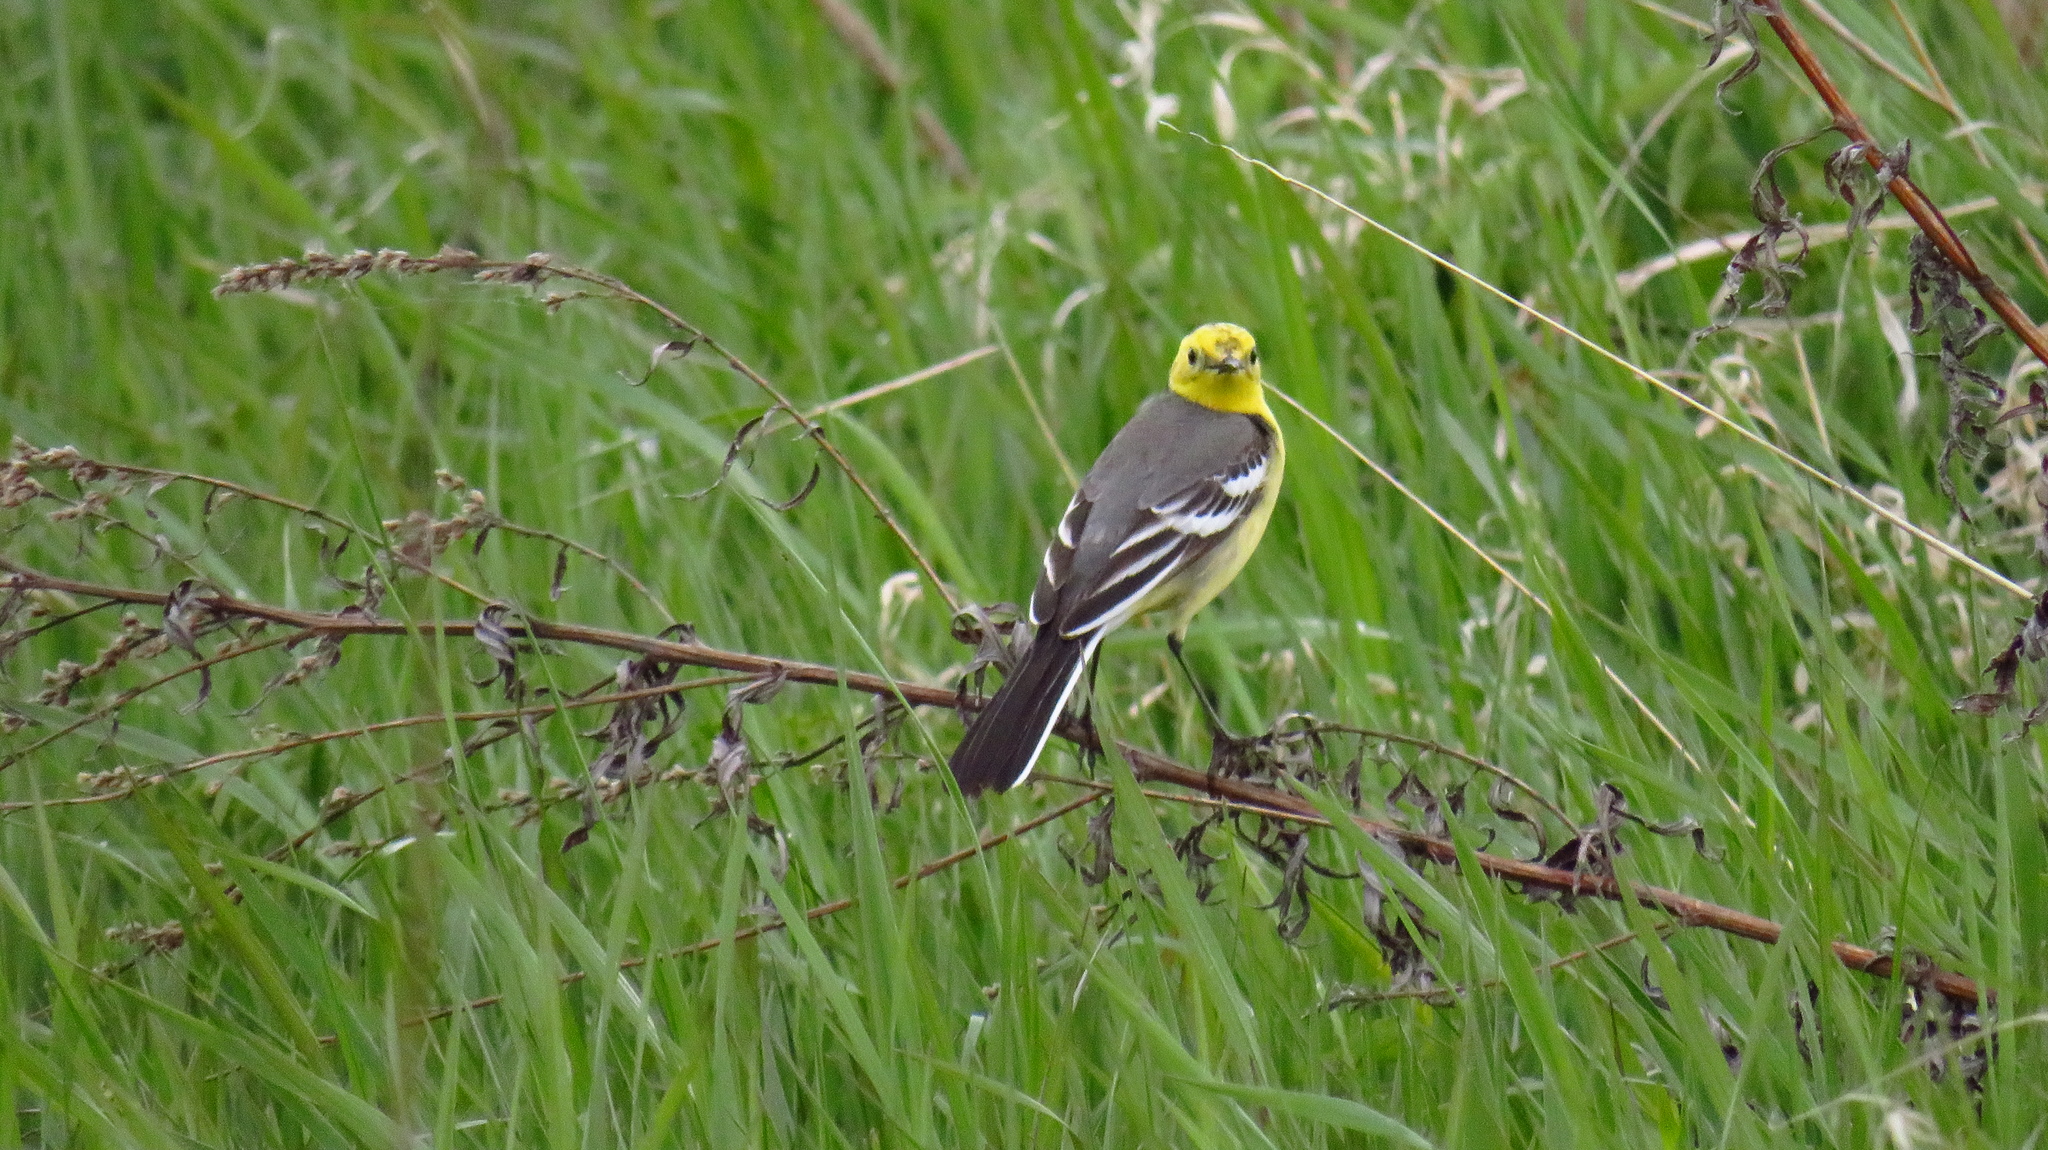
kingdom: Animalia
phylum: Chordata
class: Aves
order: Passeriformes
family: Motacillidae
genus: Motacilla
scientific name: Motacilla citreola
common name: Citrine wagtail
